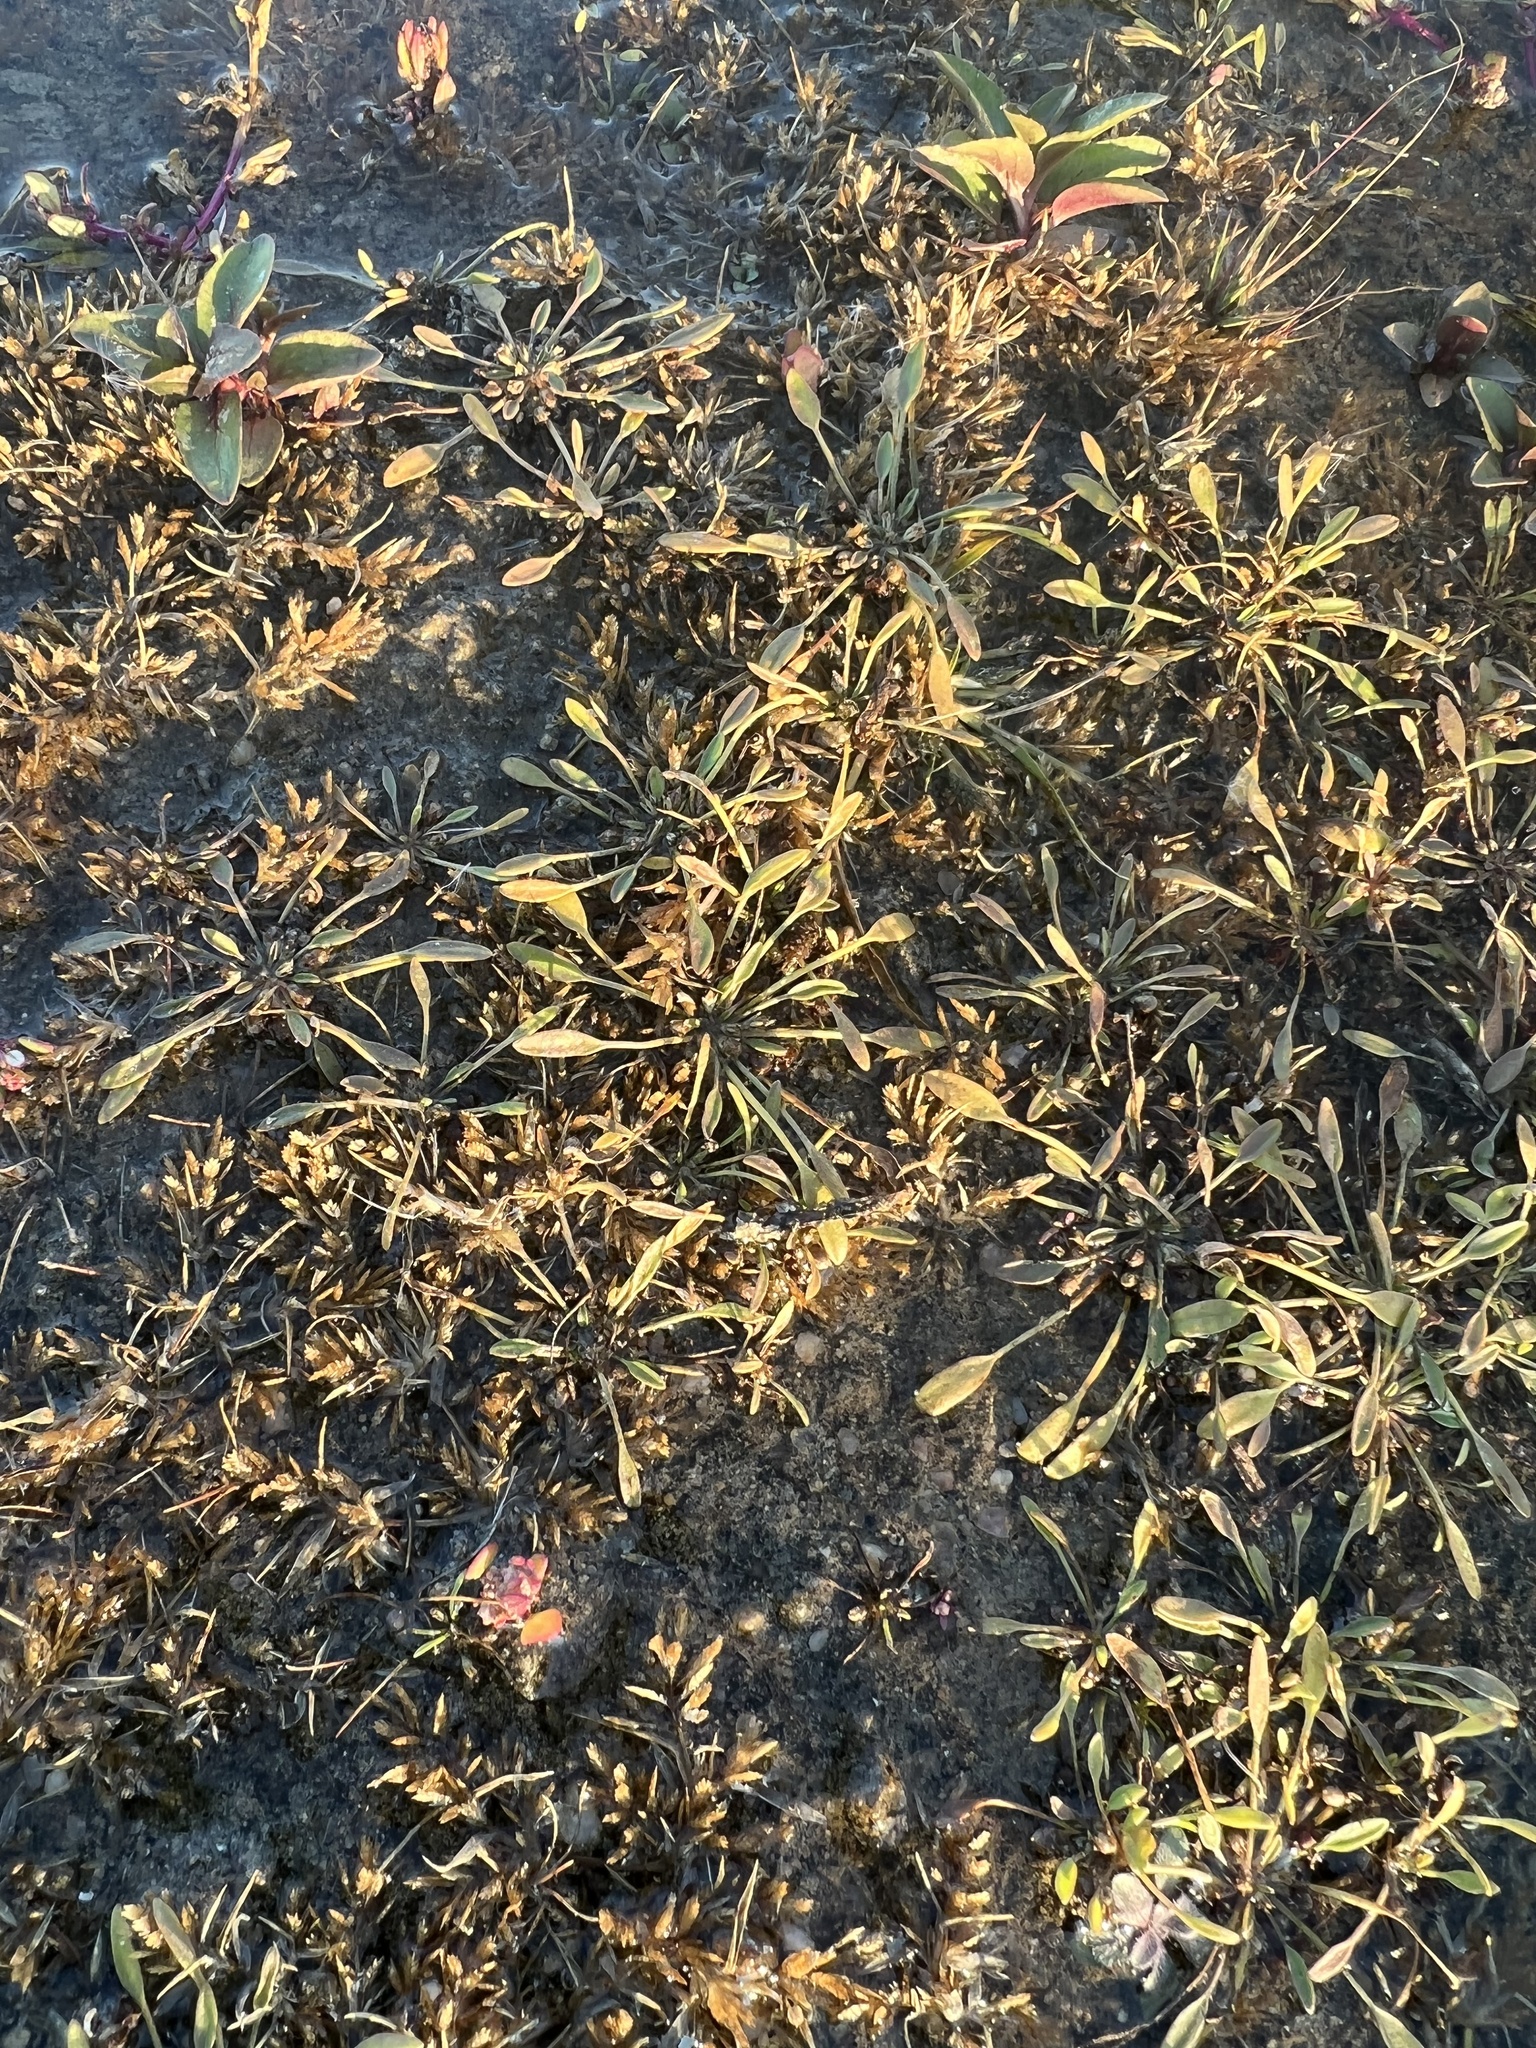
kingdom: Plantae
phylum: Tracheophyta
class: Magnoliopsida
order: Lamiales
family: Scrophulariaceae
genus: Limosella
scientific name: Limosella aquatica
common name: Mudwort
